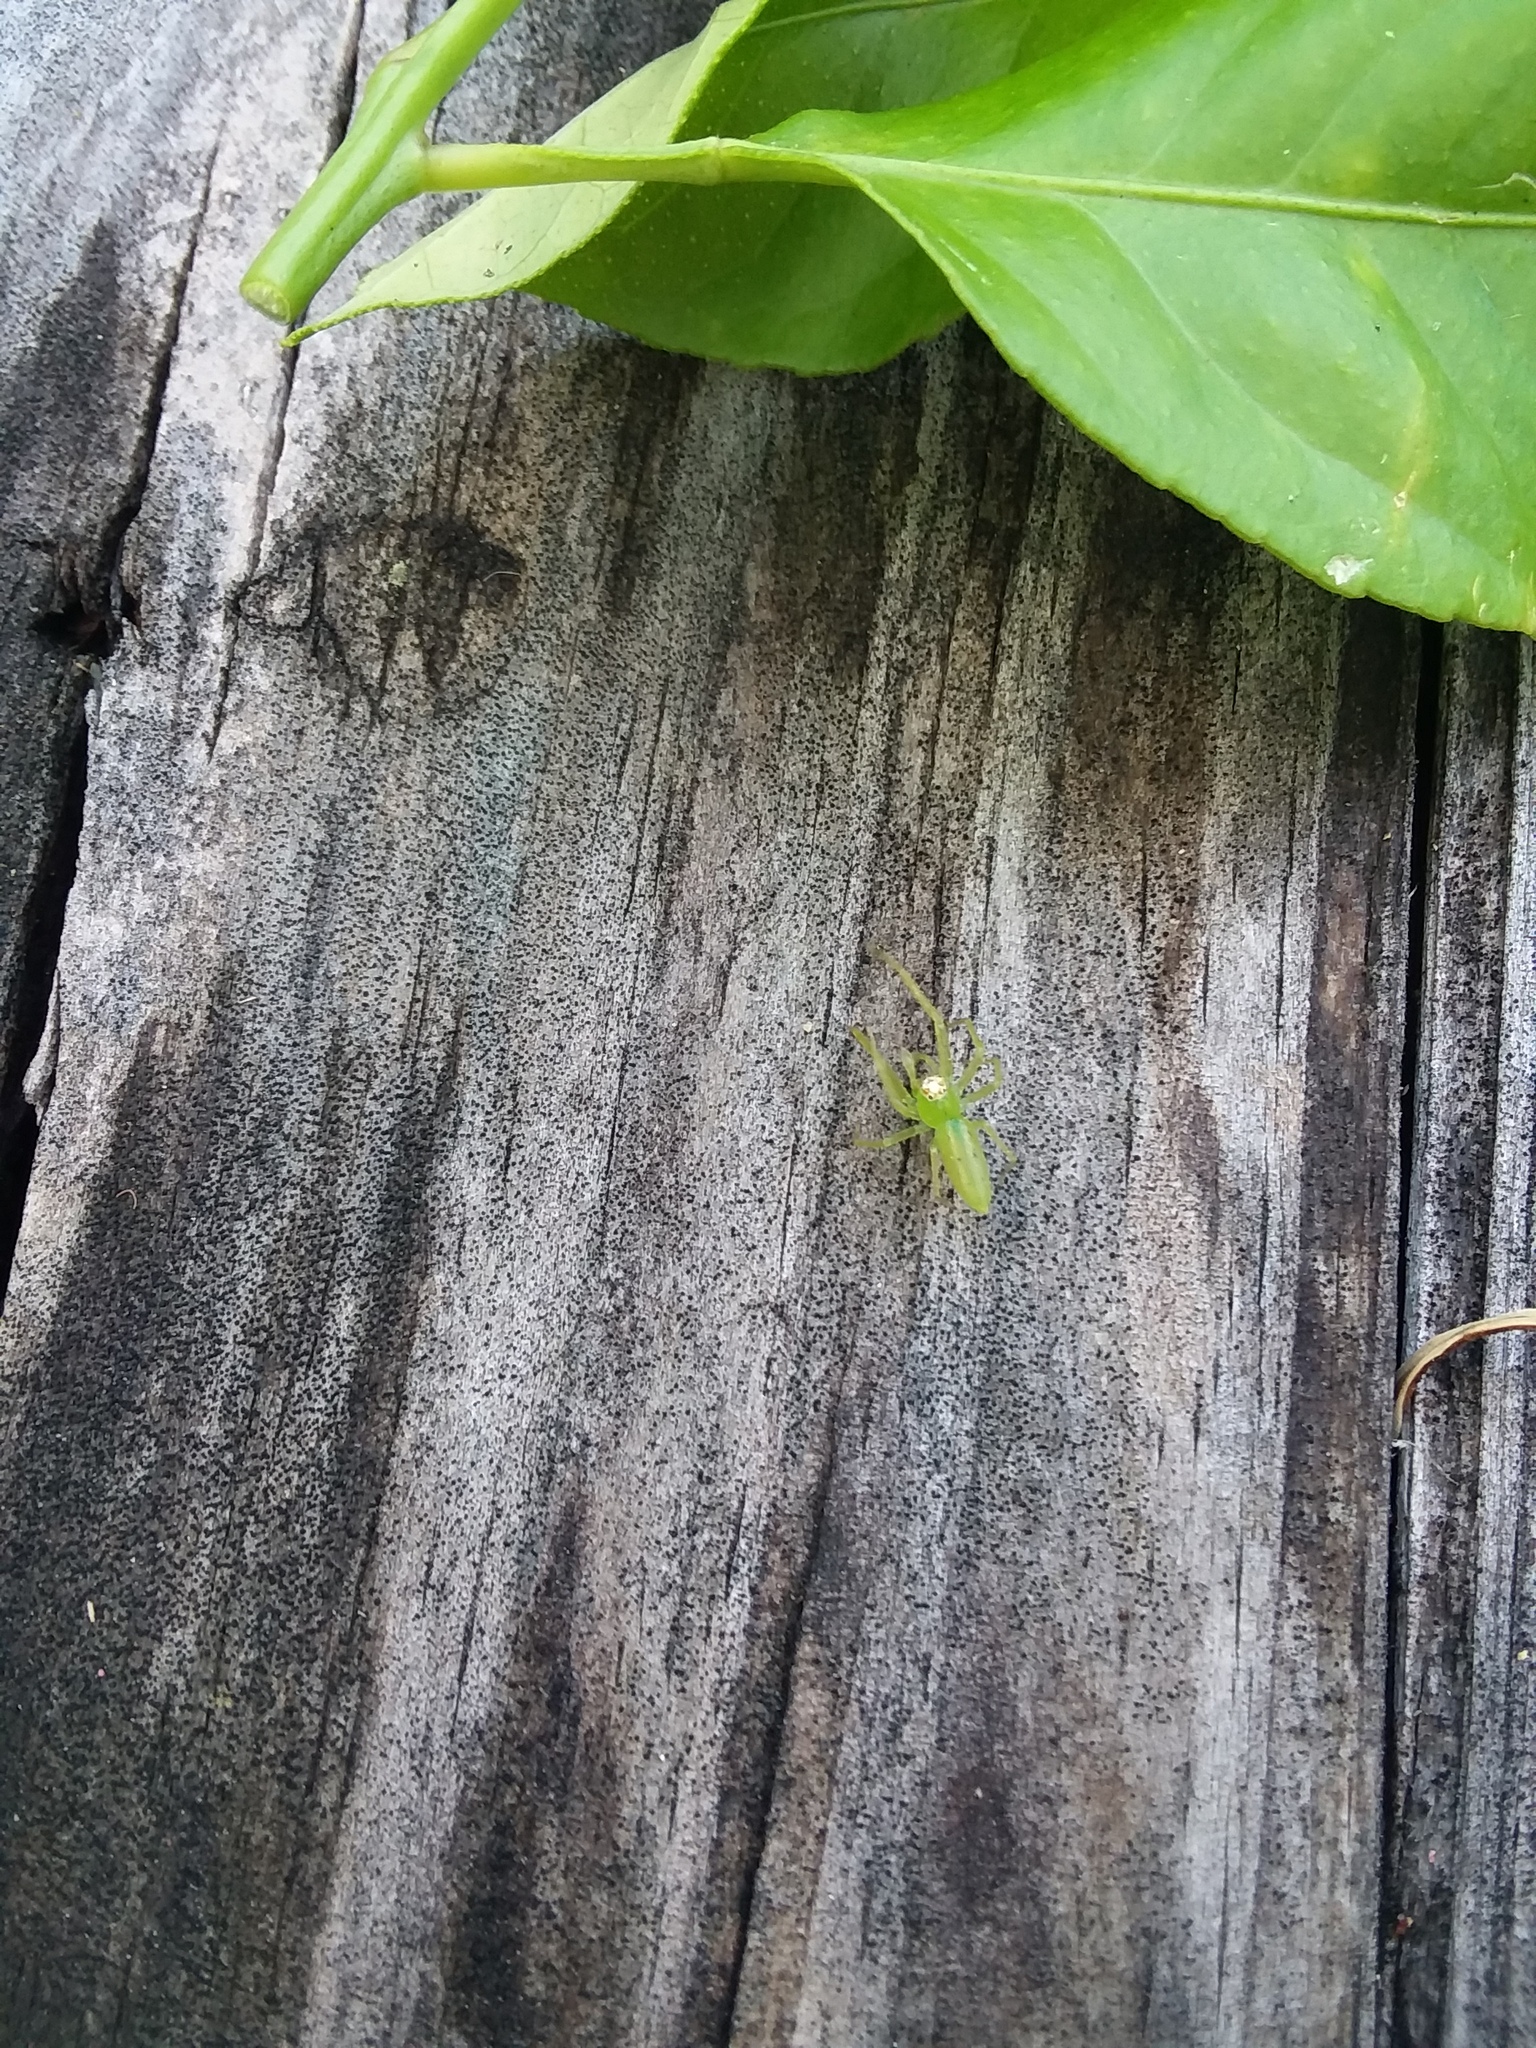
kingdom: Animalia
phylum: Arthropoda
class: Arachnida
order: Araneae
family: Salticidae
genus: Lyssomanes
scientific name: Lyssomanes viridis
